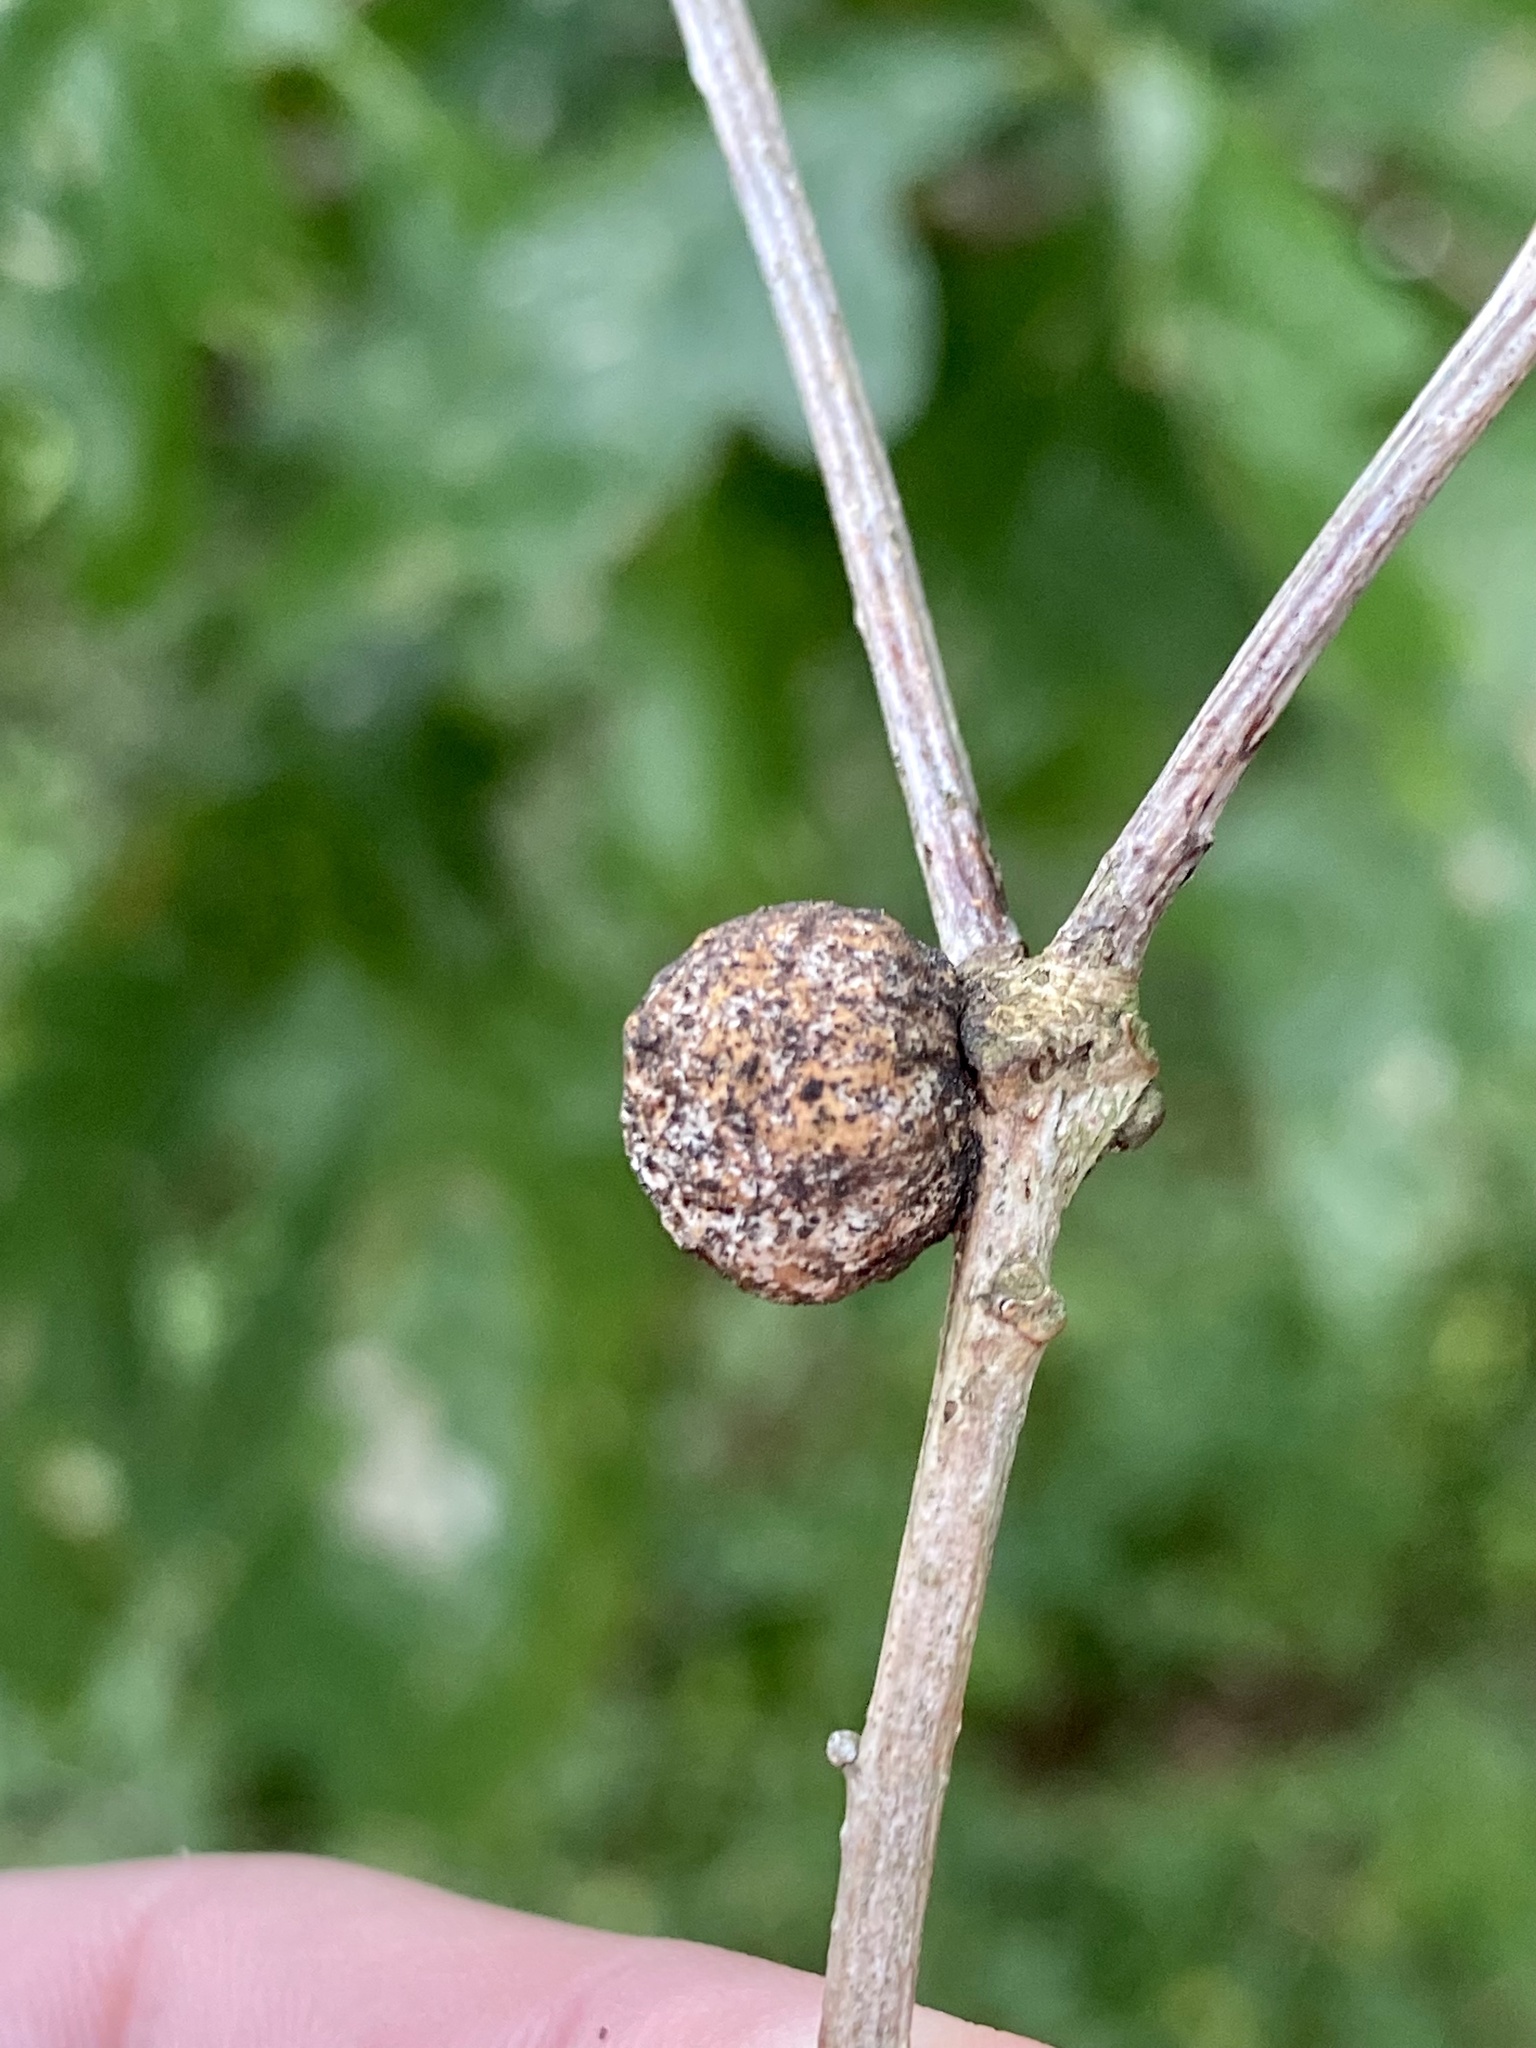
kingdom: Animalia
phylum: Arthropoda
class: Insecta
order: Hymenoptera
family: Cynipidae
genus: Disholcaspis
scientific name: Disholcaspis quercusglobulus
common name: Round bullet gall wasp
